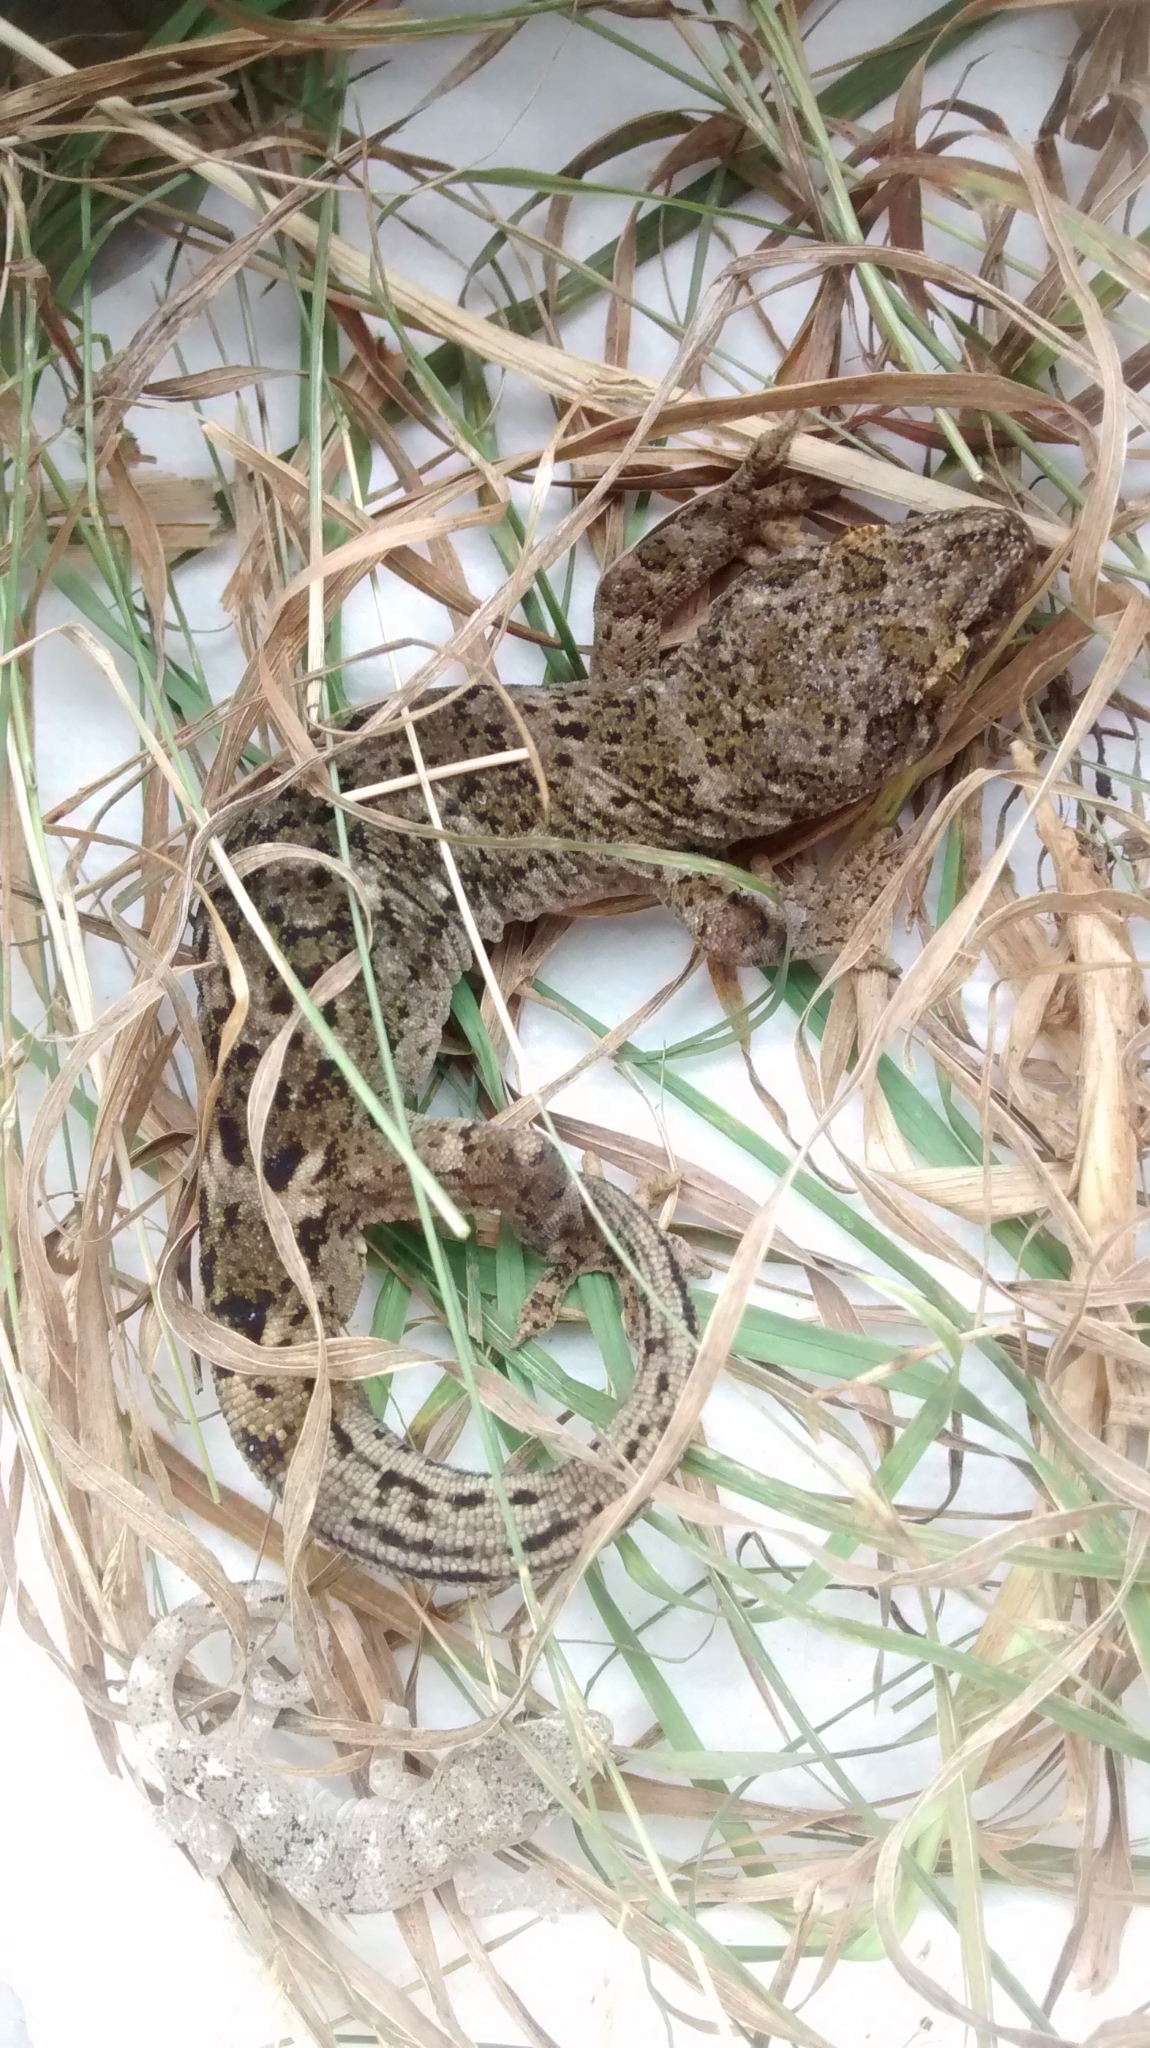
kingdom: Animalia
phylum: Chordata
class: Squamata
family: Diplodactylidae
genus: Woodworthia
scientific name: Woodworthia brunnea
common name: Canterbury gecko
